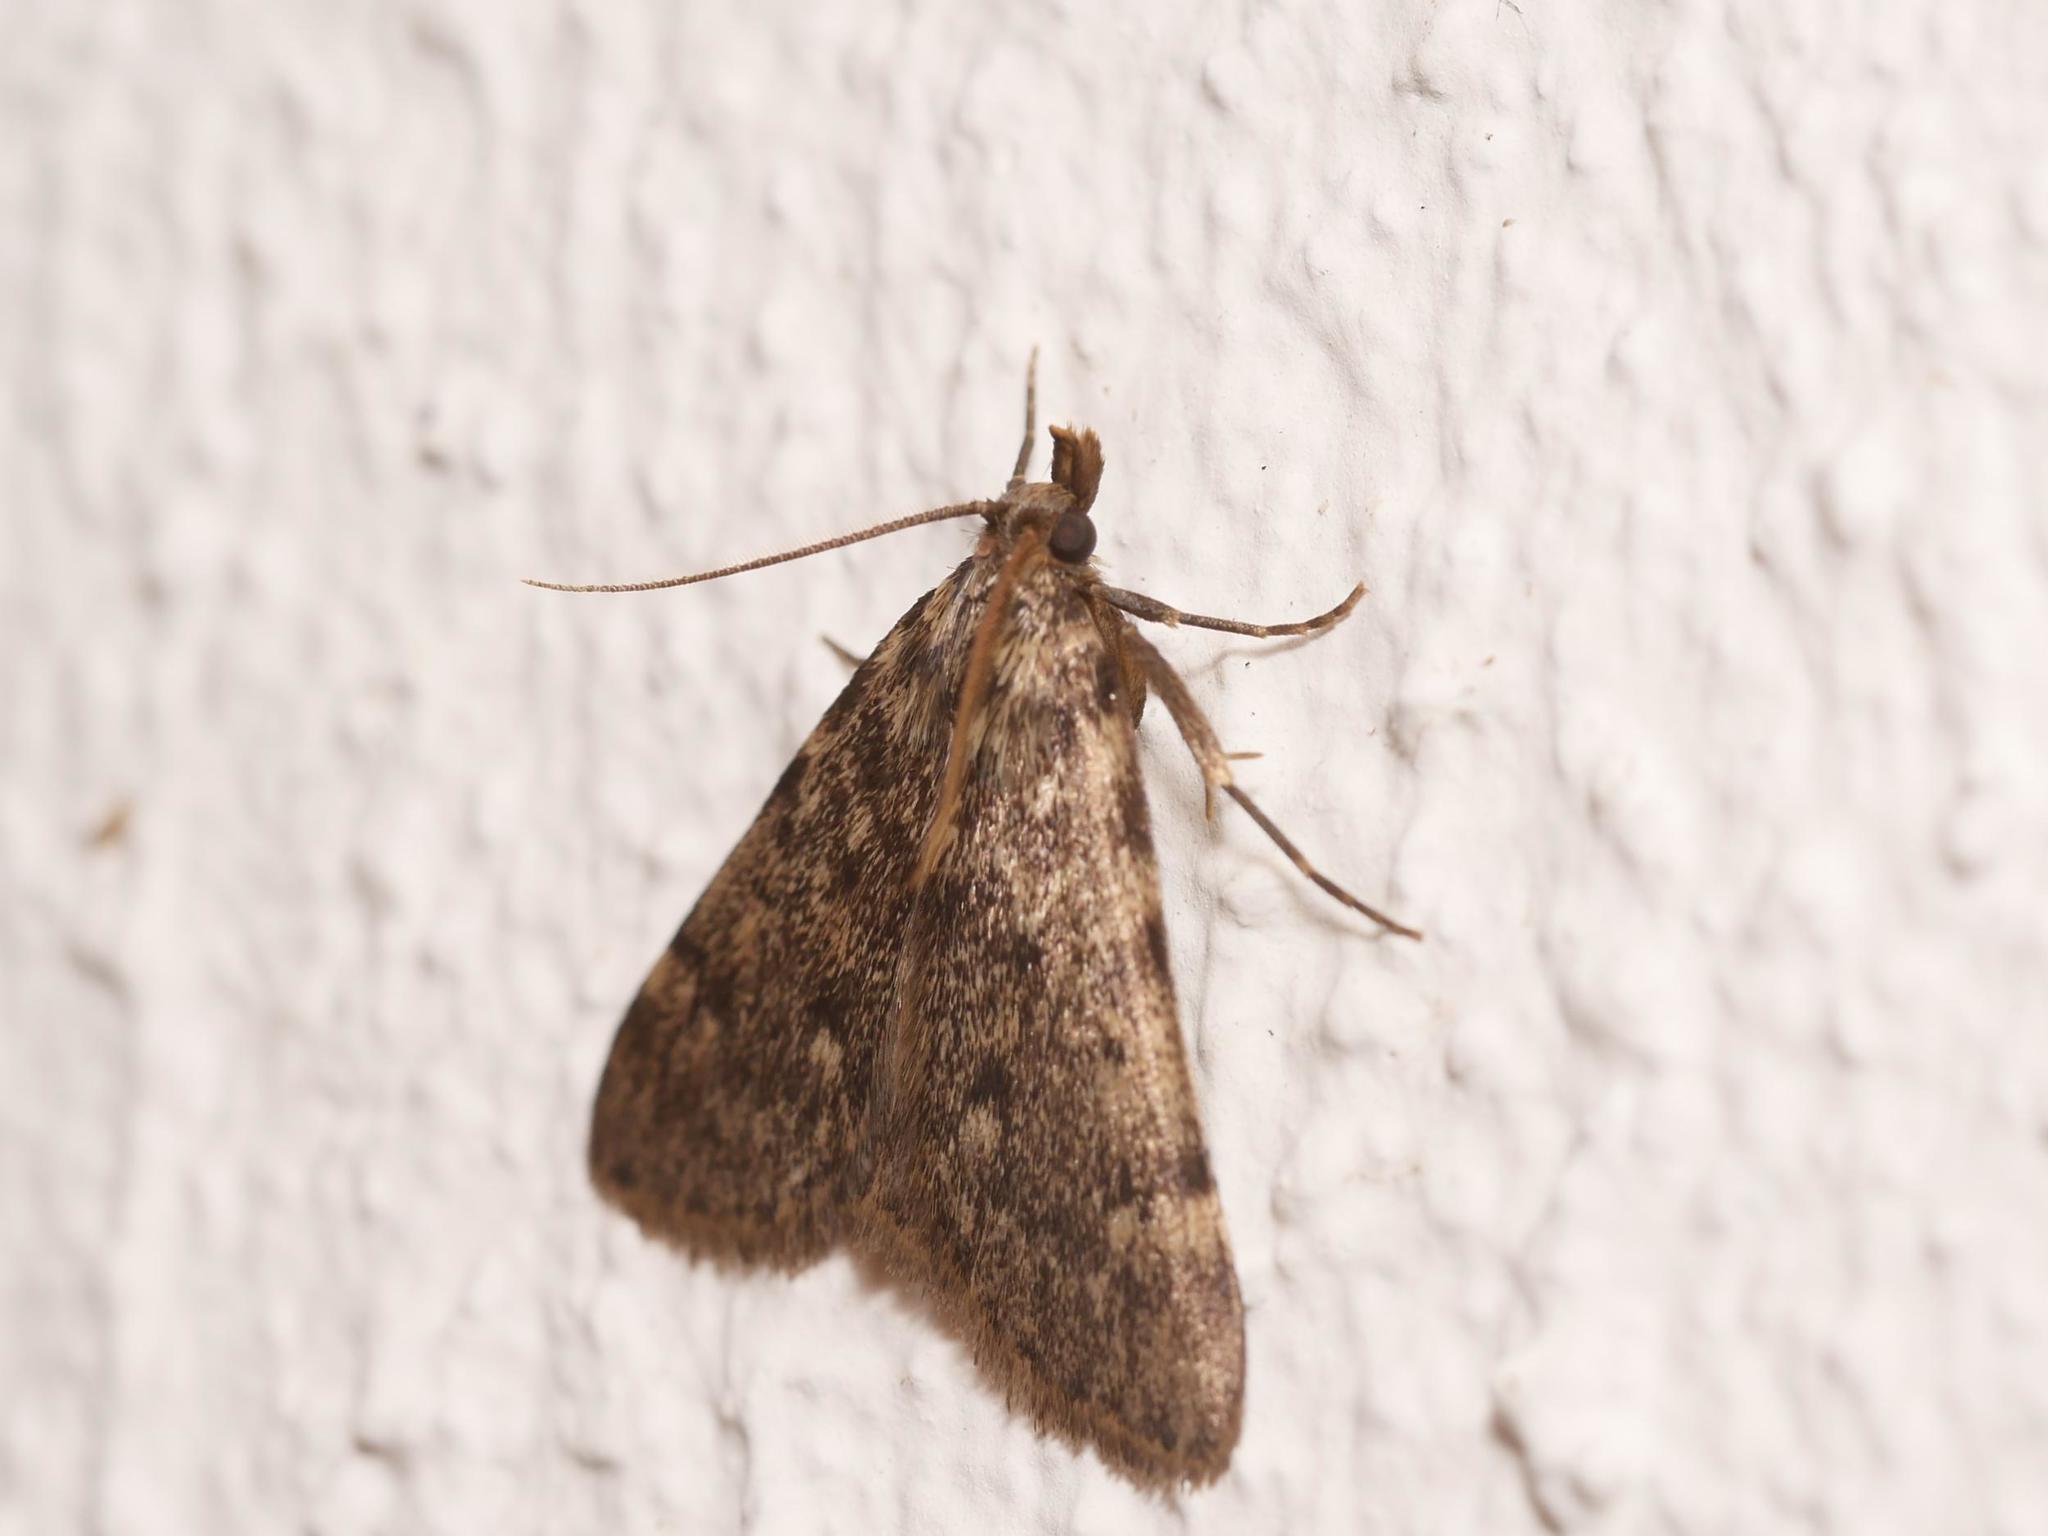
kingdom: Animalia
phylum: Arthropoda
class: Insecta
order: Lepidoptera
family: Pyralidae
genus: Aglossa
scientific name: Aglossa pinguinalis
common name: Large tabby
